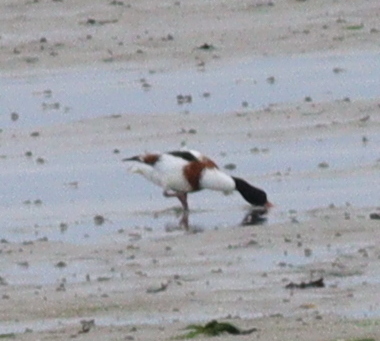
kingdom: Animalia
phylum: Chordata
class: Aves
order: Anseriformes
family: Anatidae
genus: Tadorna
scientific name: Tadorna tadorna
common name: Common shelduck
